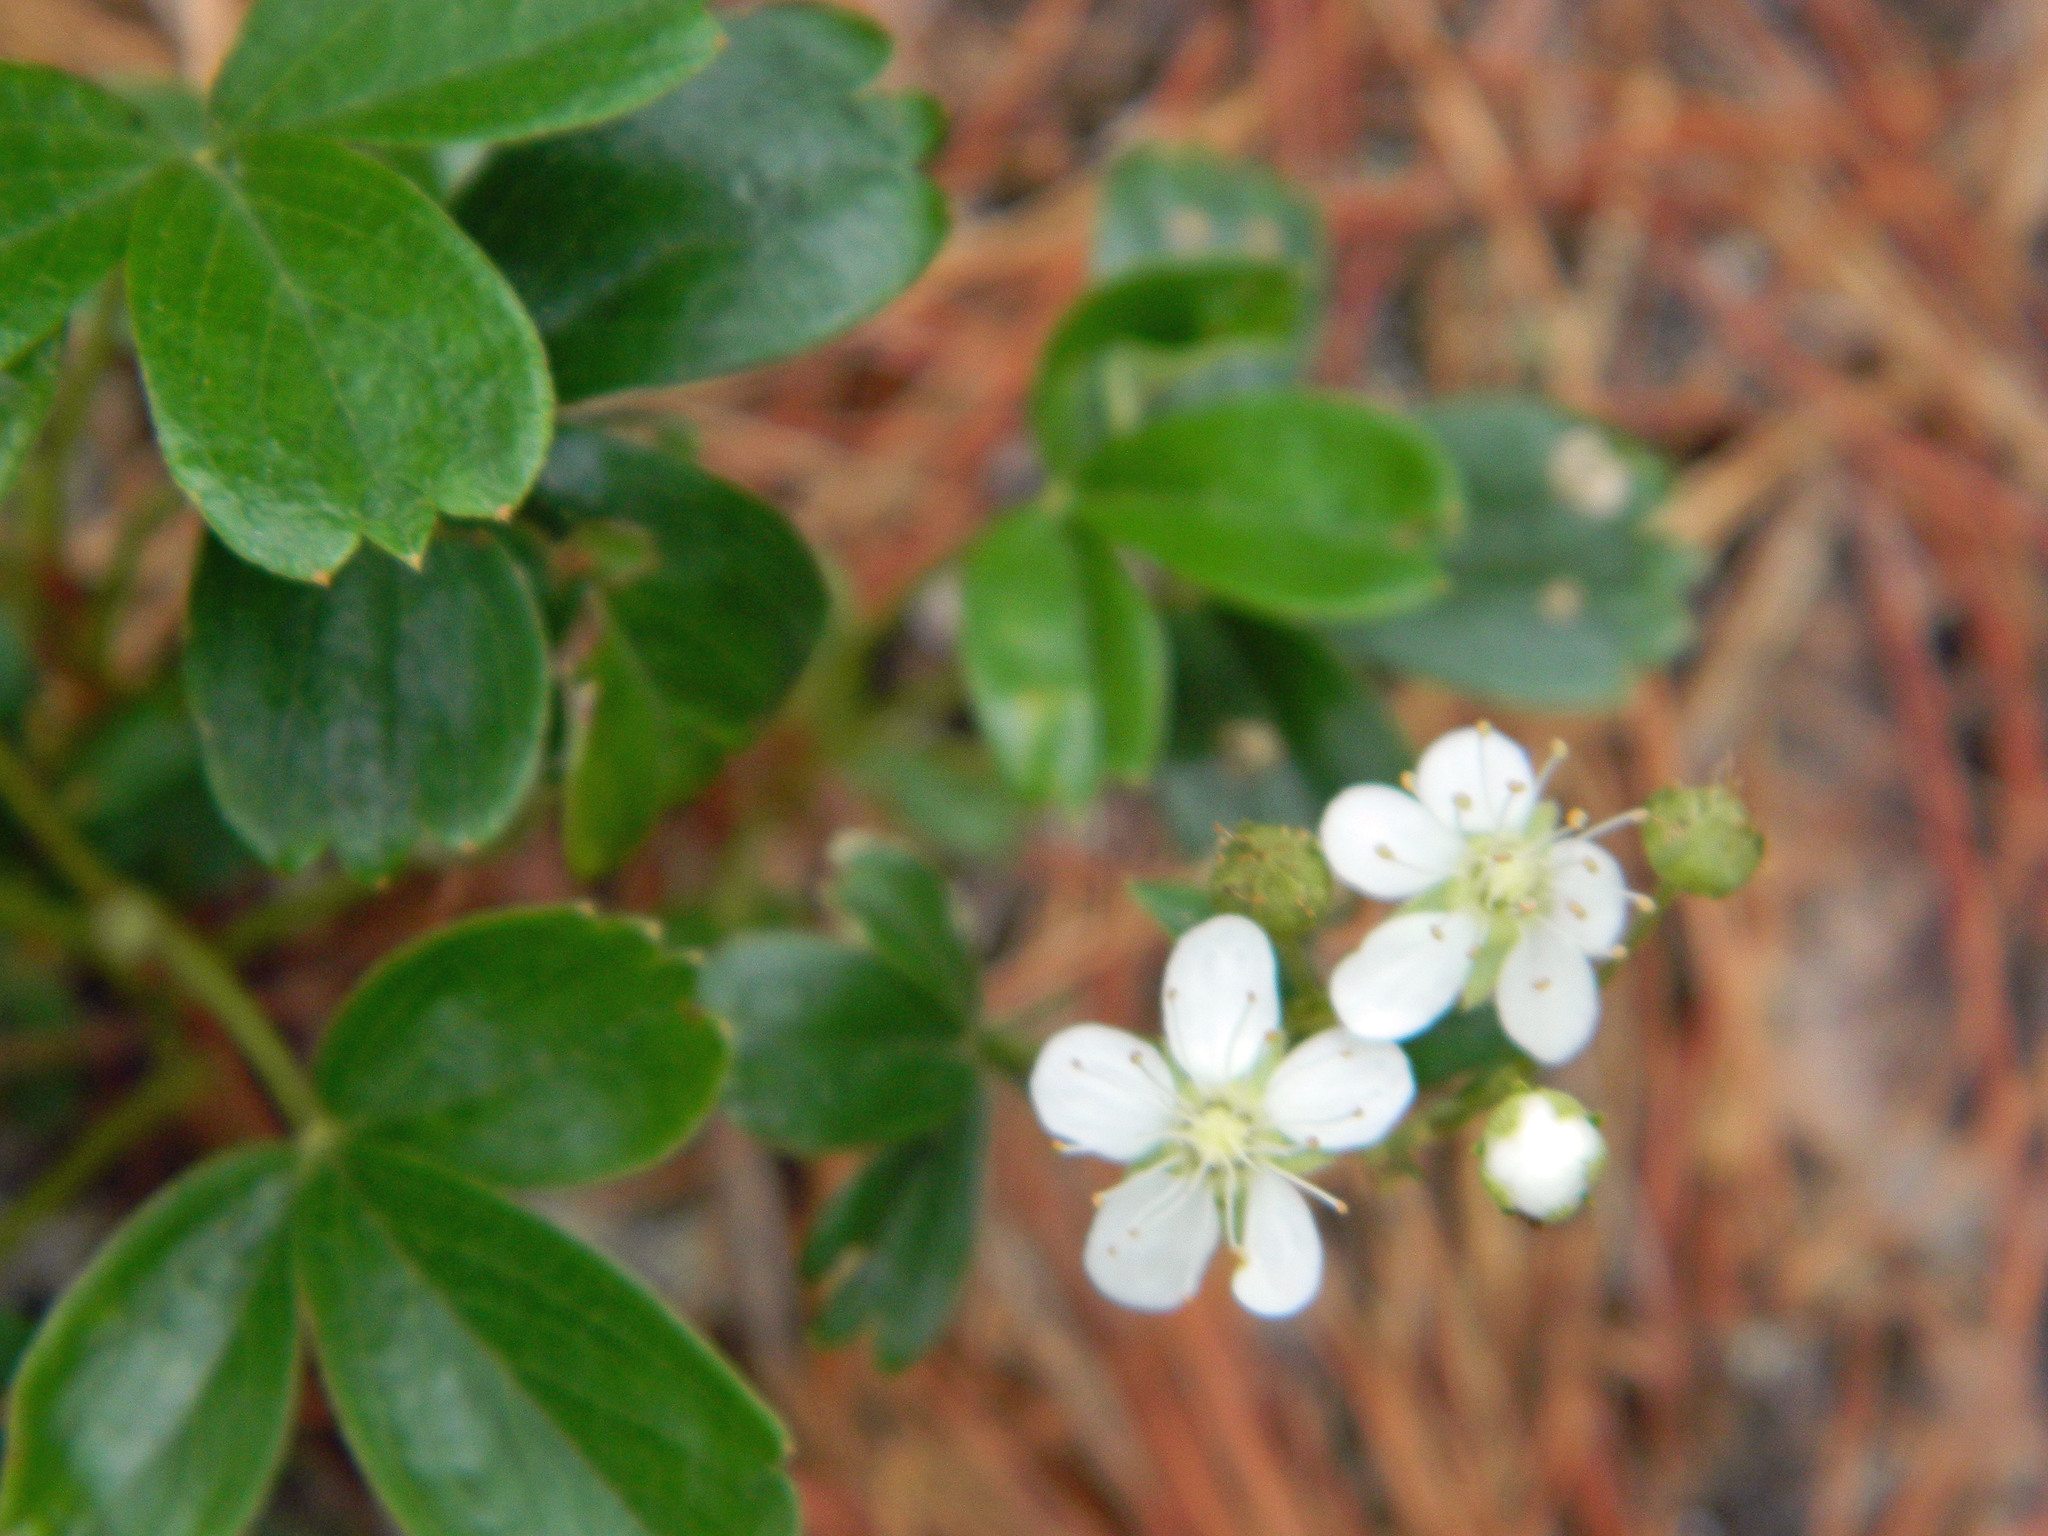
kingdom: Plantae
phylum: Tracheophyta
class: Magnoliopsida
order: Rosales
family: Rosaceae
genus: Sibbaldia
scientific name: Sibbaldia tridentata
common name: Three-toothed cinquefoil
